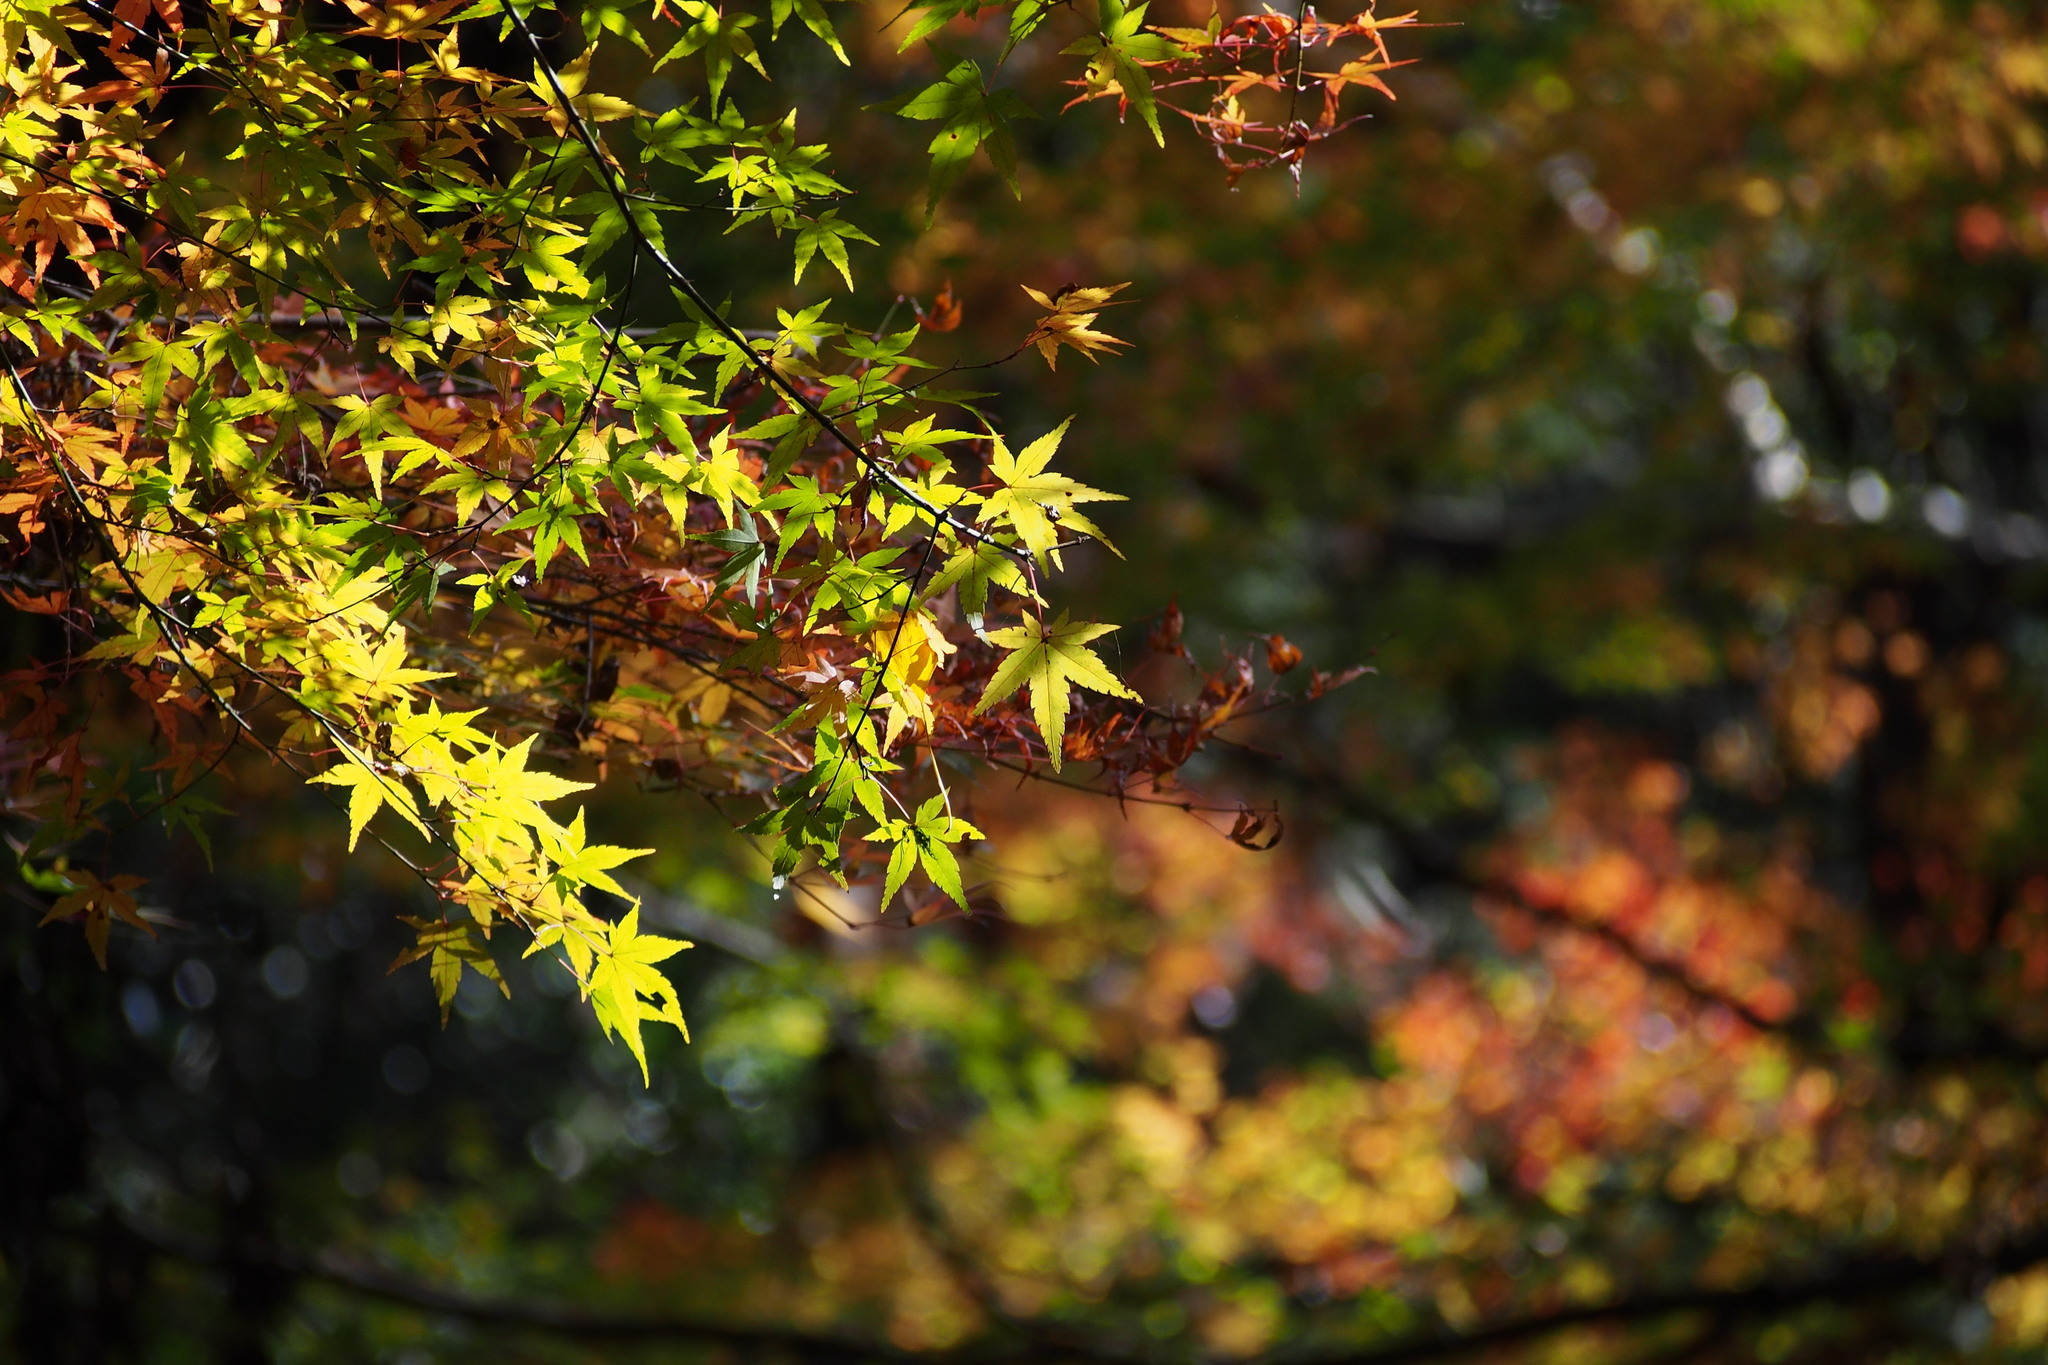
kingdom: Plantae
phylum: Tracheophyta
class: Magnoliopsida
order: Sapindales
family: Sapindaceae
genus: Acer
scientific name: Acer palmatum
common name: Japanese maple
